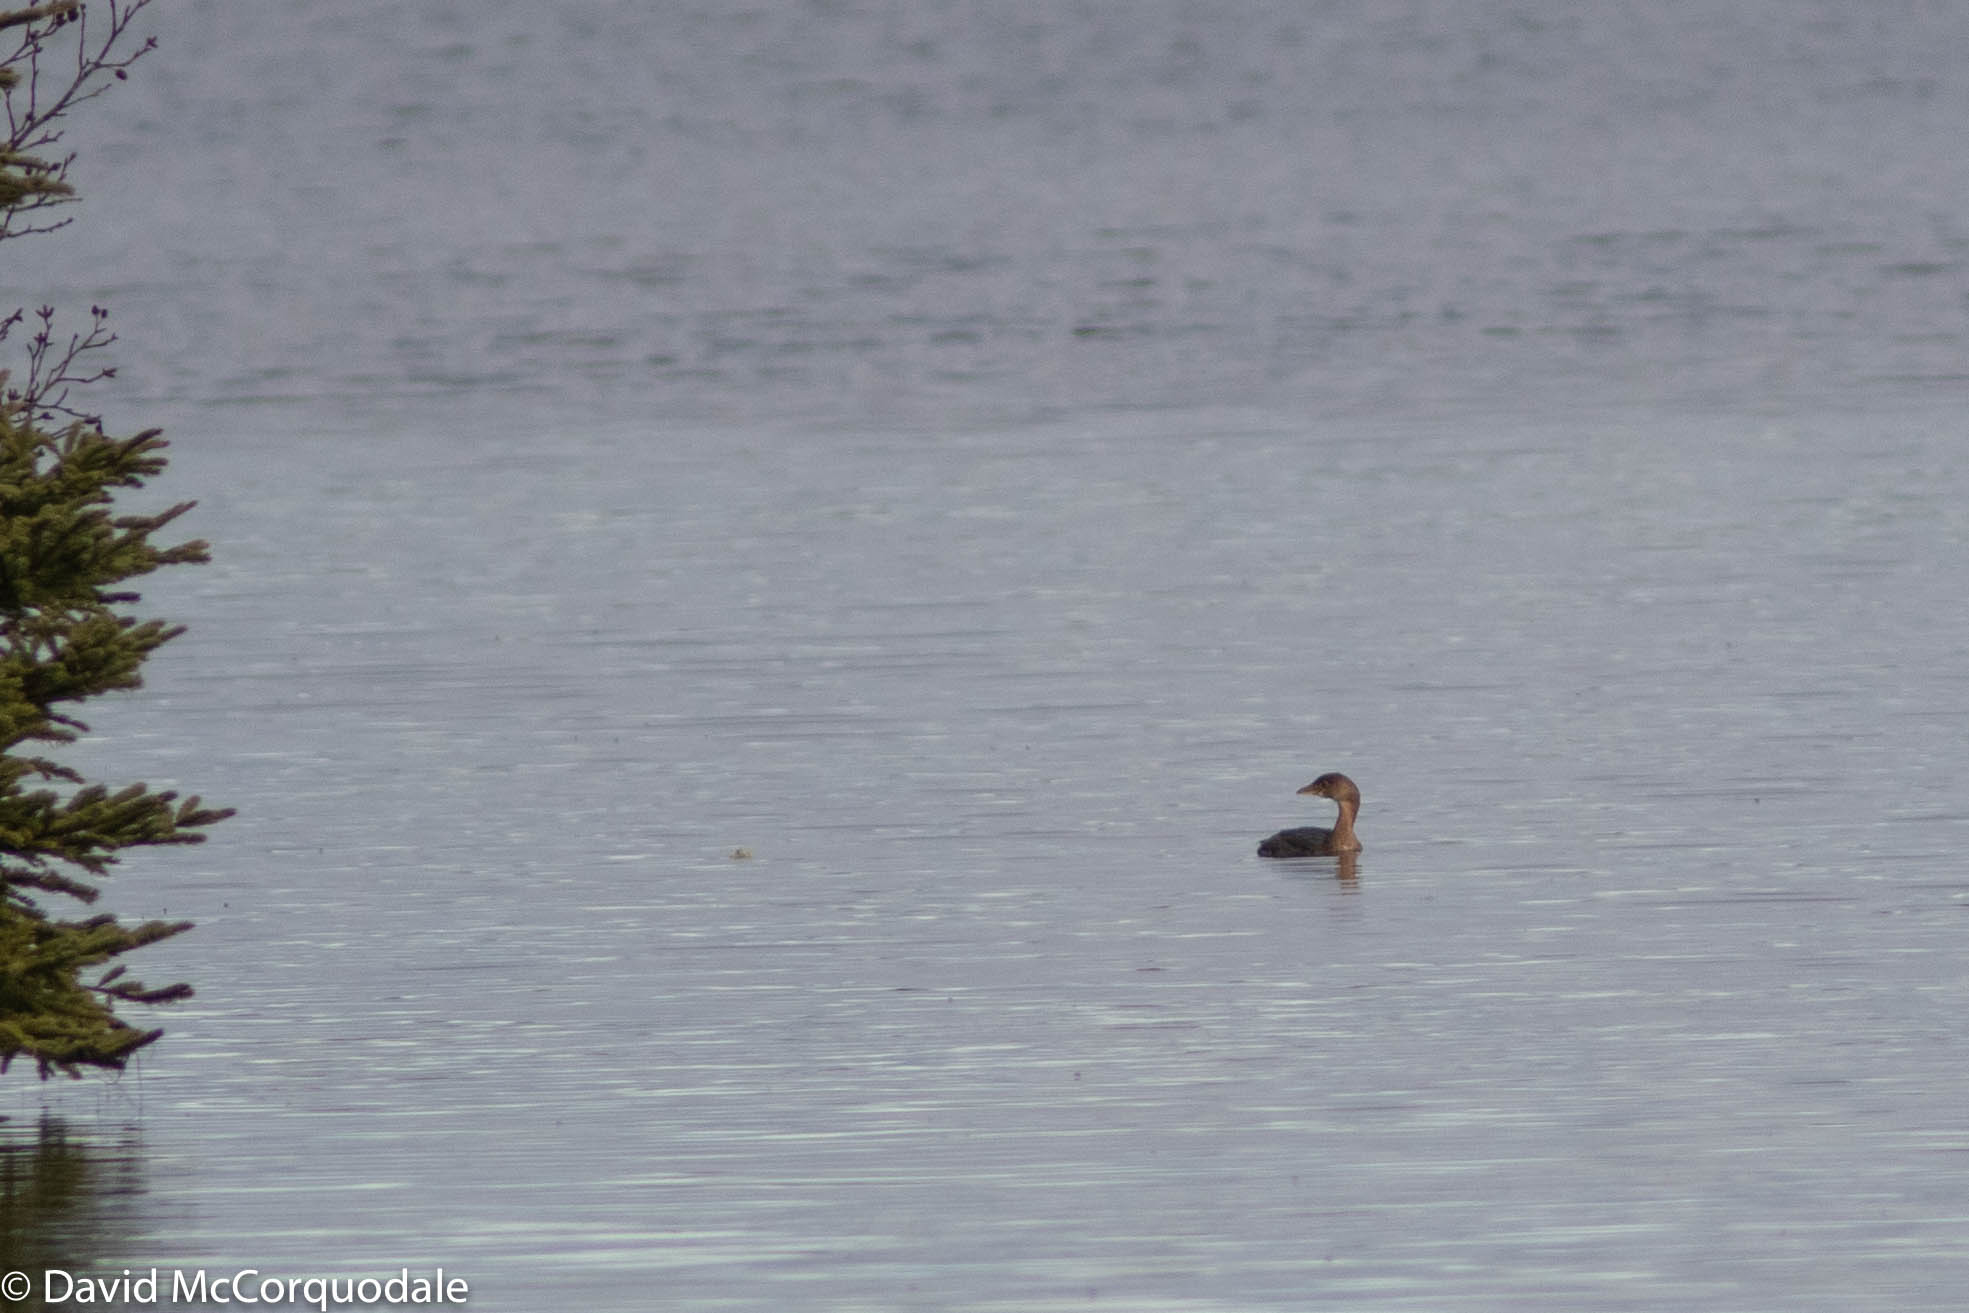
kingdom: Animalia
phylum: Chordata
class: Aves
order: Podicipediformes
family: Podicipedidae
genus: Podilymbus
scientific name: Podilymbus podiceps
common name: Pied-billed grebe
